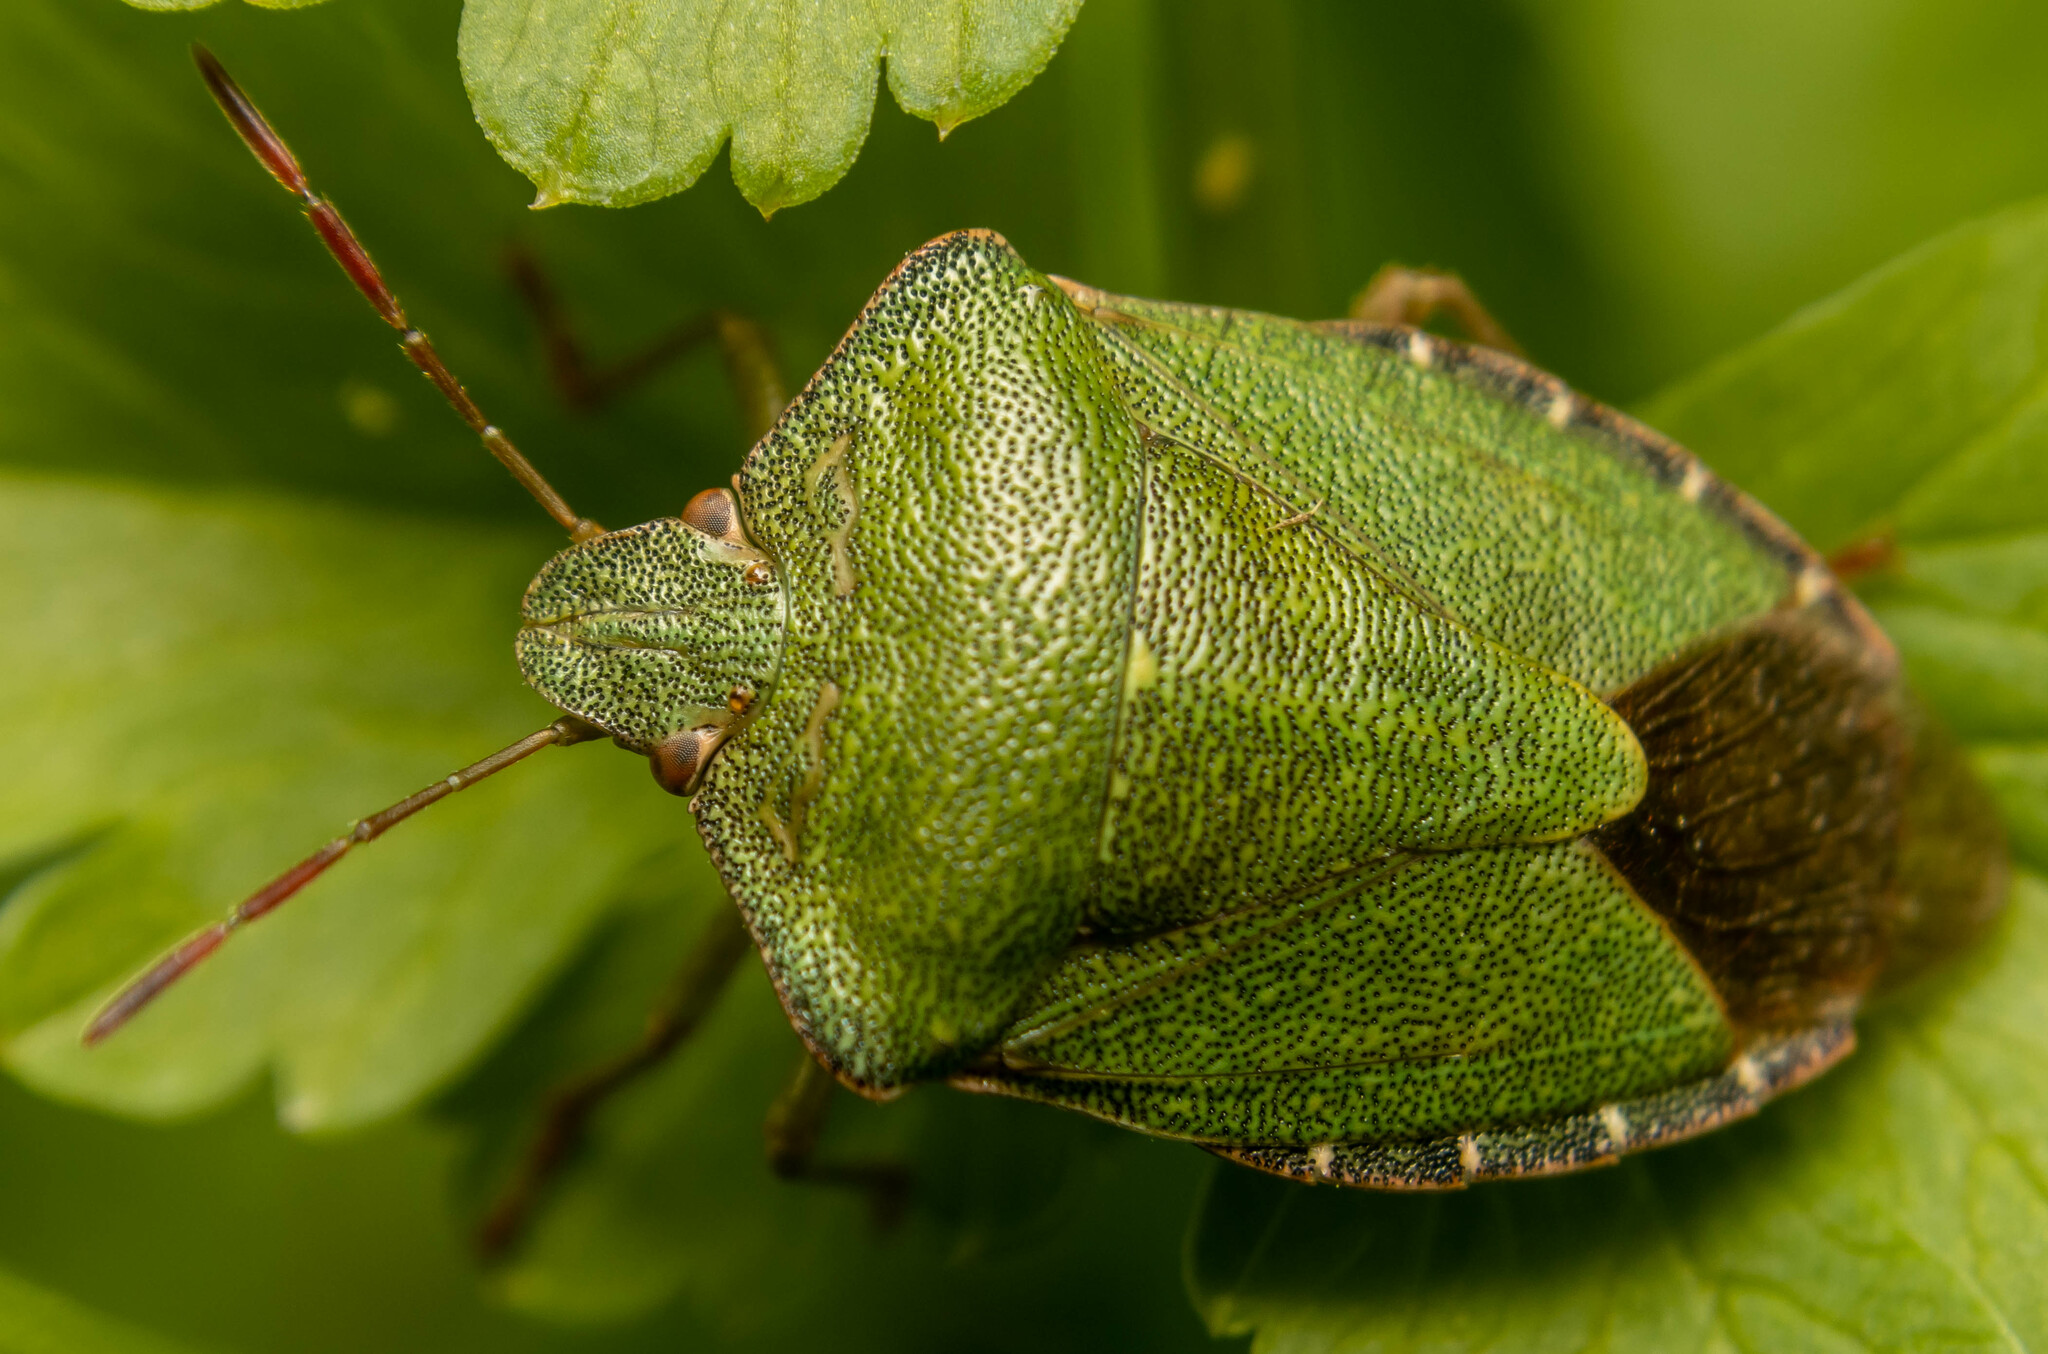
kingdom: Animalia
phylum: Arthropoda
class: Insecta
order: Hemiptera
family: Pentatomidae
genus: Palomena
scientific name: Palomena prasina
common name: Green shieldbug
